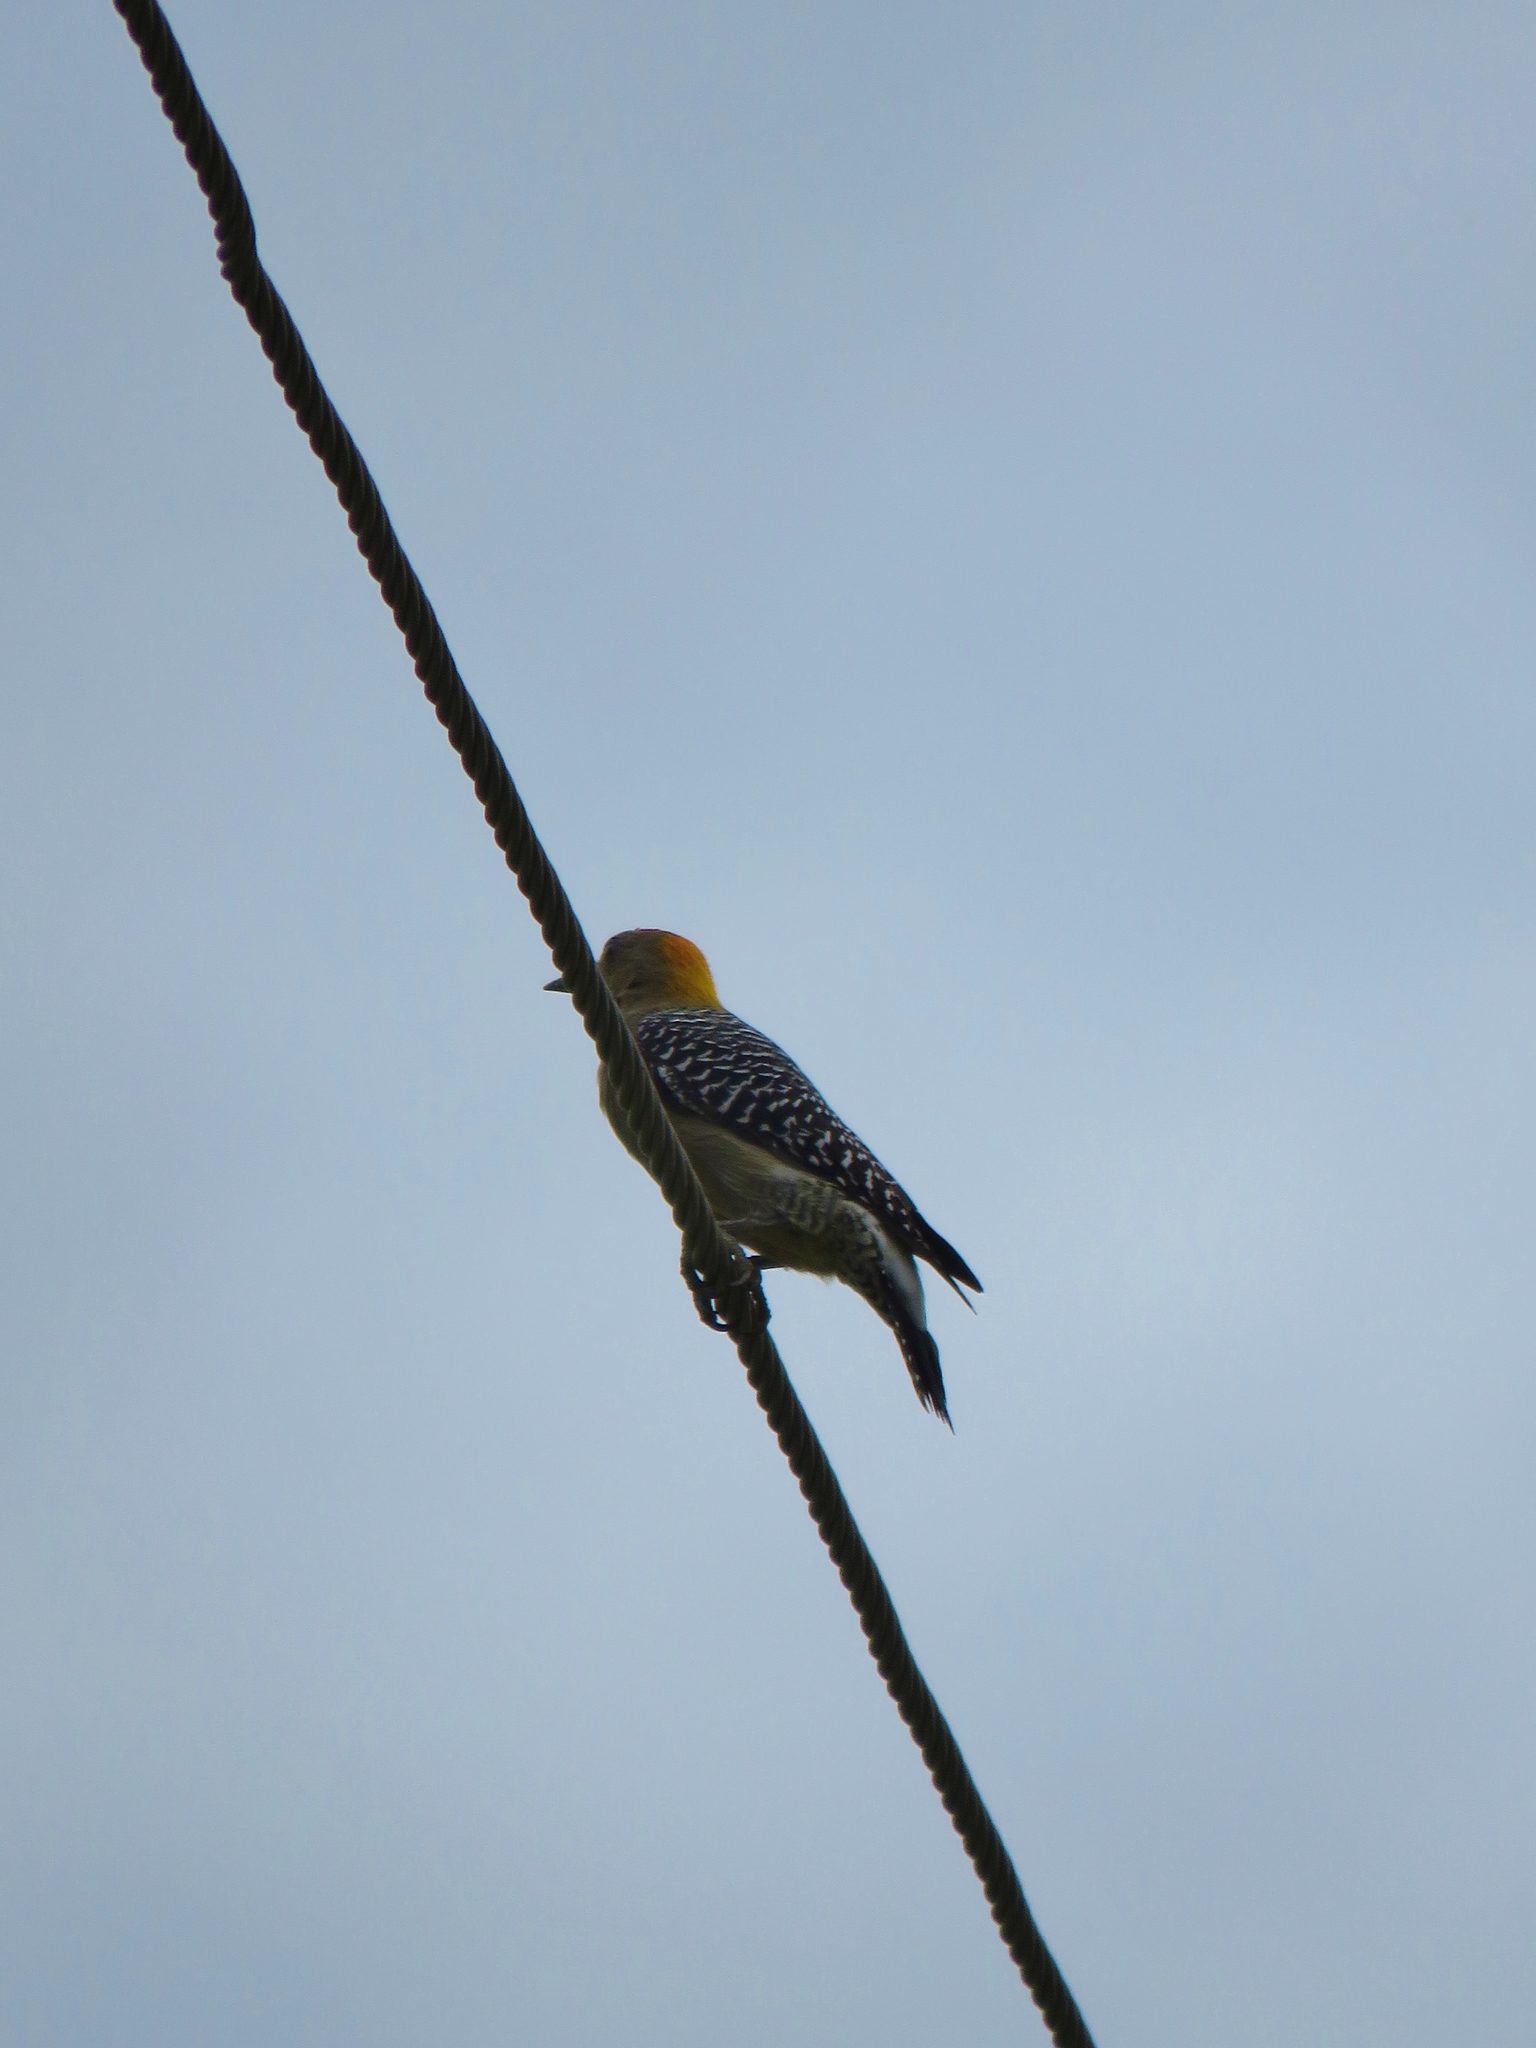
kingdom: Animalia
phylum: Chordata
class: Aves
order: Piciformes
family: Picidae
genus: Melanerpes
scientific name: Melanerpes hoffmannii
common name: Hoffmann's woodpecker
